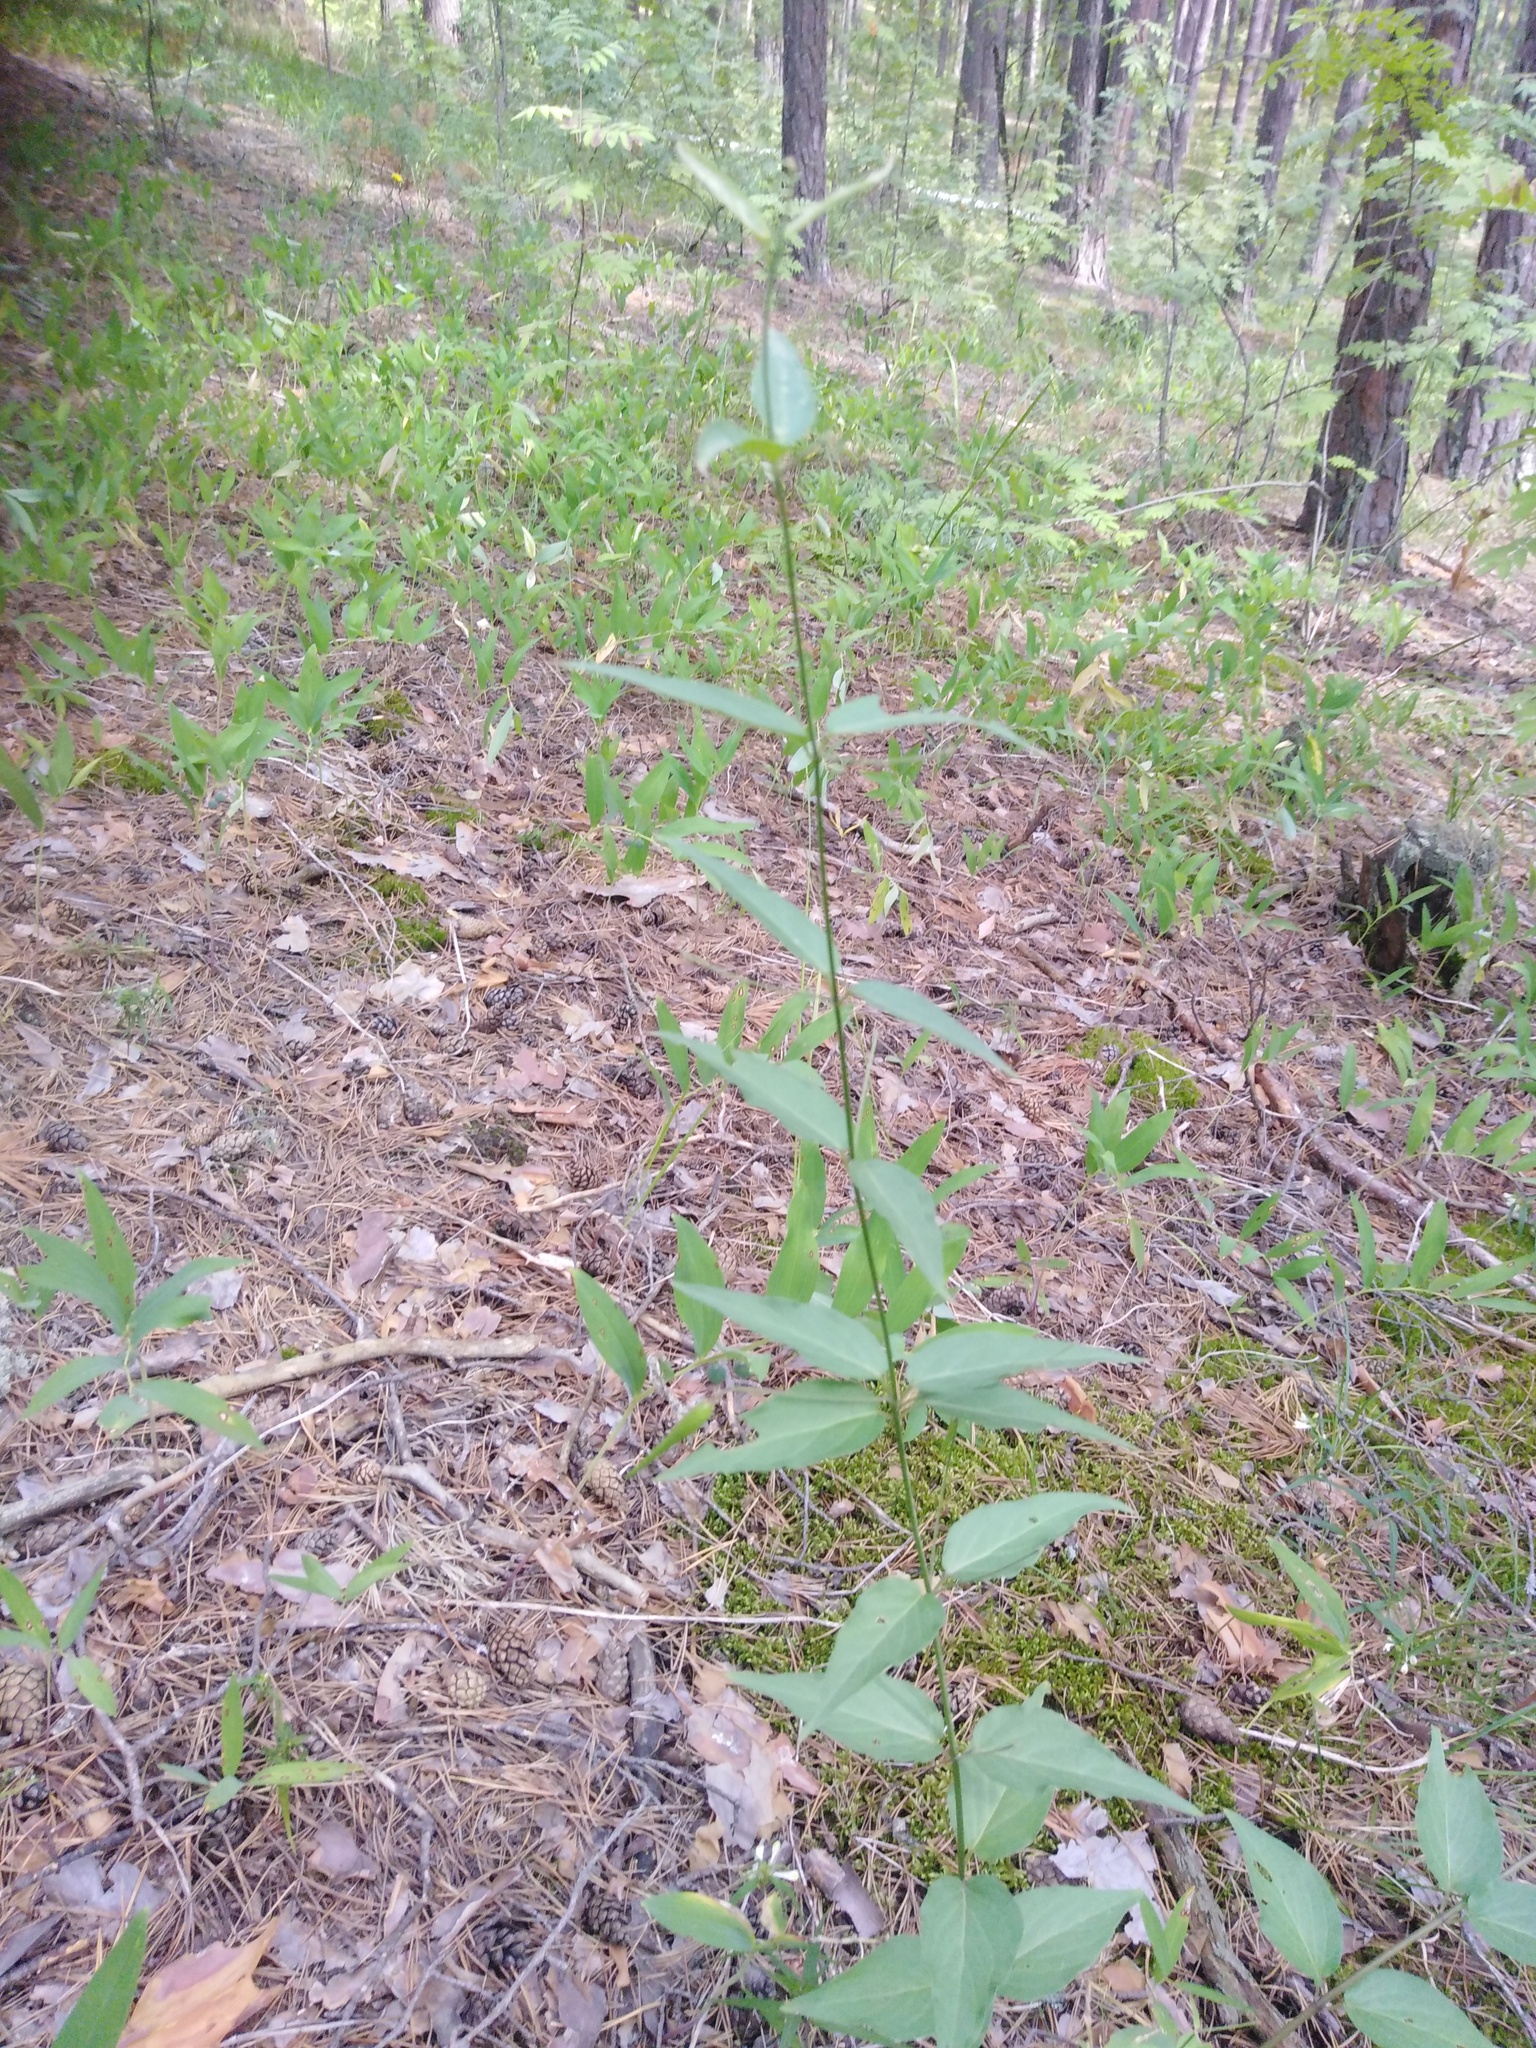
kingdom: Plantae
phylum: Tracheophyta
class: Magnoliopsida
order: Gentianales
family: Apocynaceae
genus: Vincetoxicum
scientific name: Vincetoxicum hirundinaria
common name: White swallowwort
